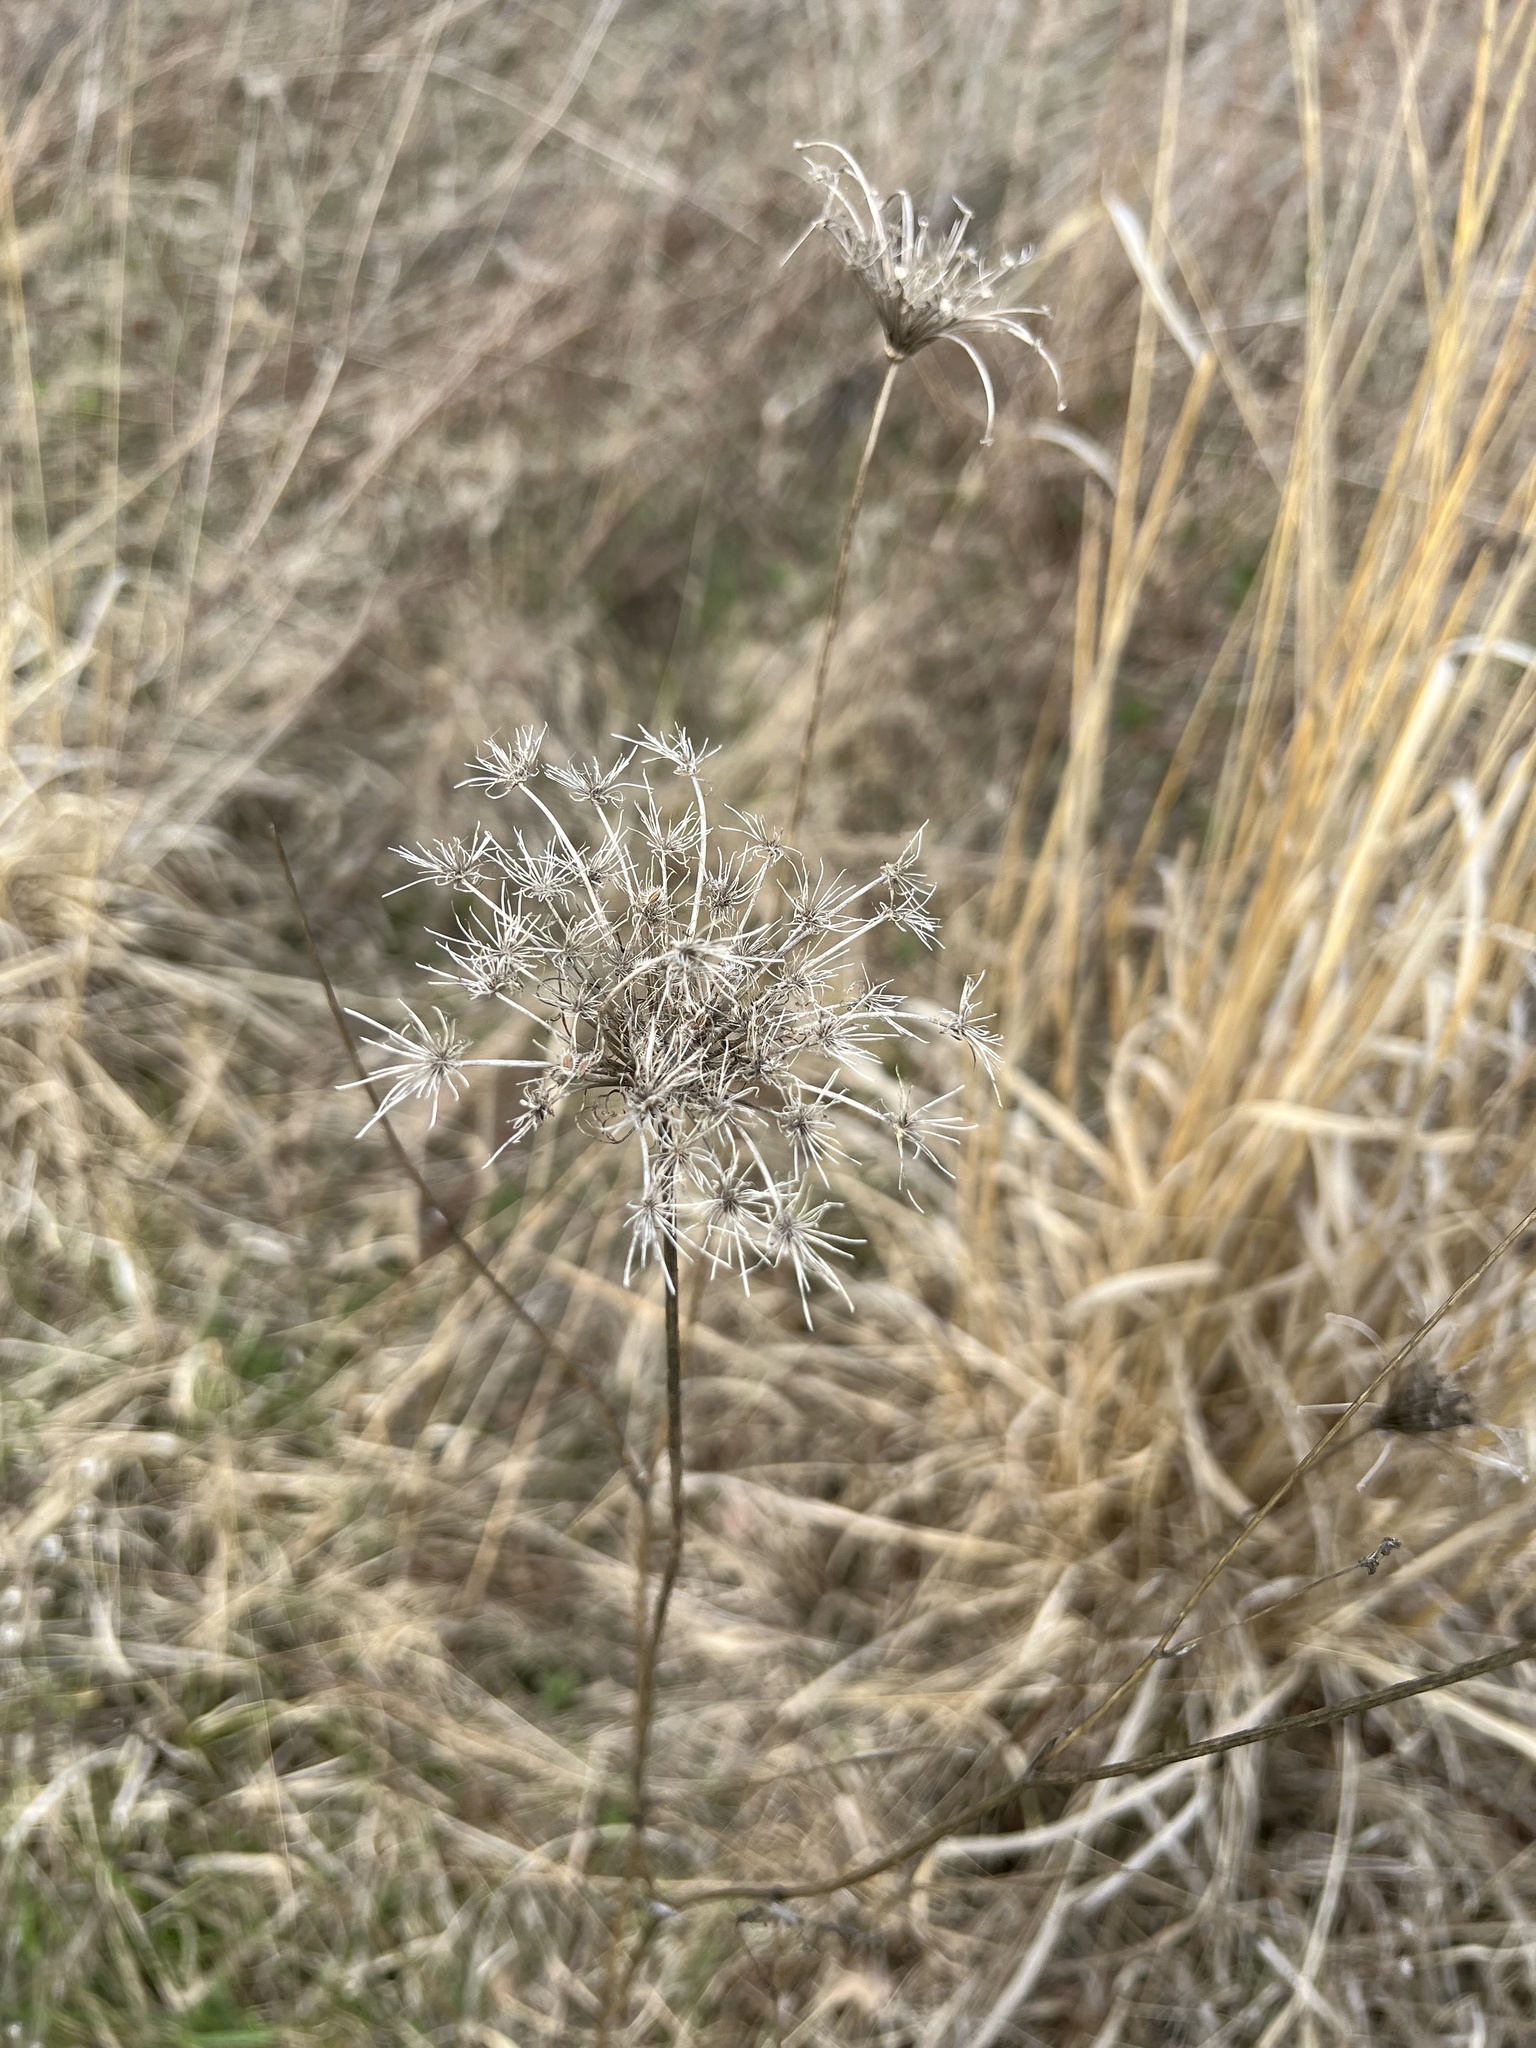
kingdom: Plantae
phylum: Tracheophyta
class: Magnoliopsida
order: Apiales
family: Apiaceae
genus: Daucus
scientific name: Daucus carota
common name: Wild carrot
